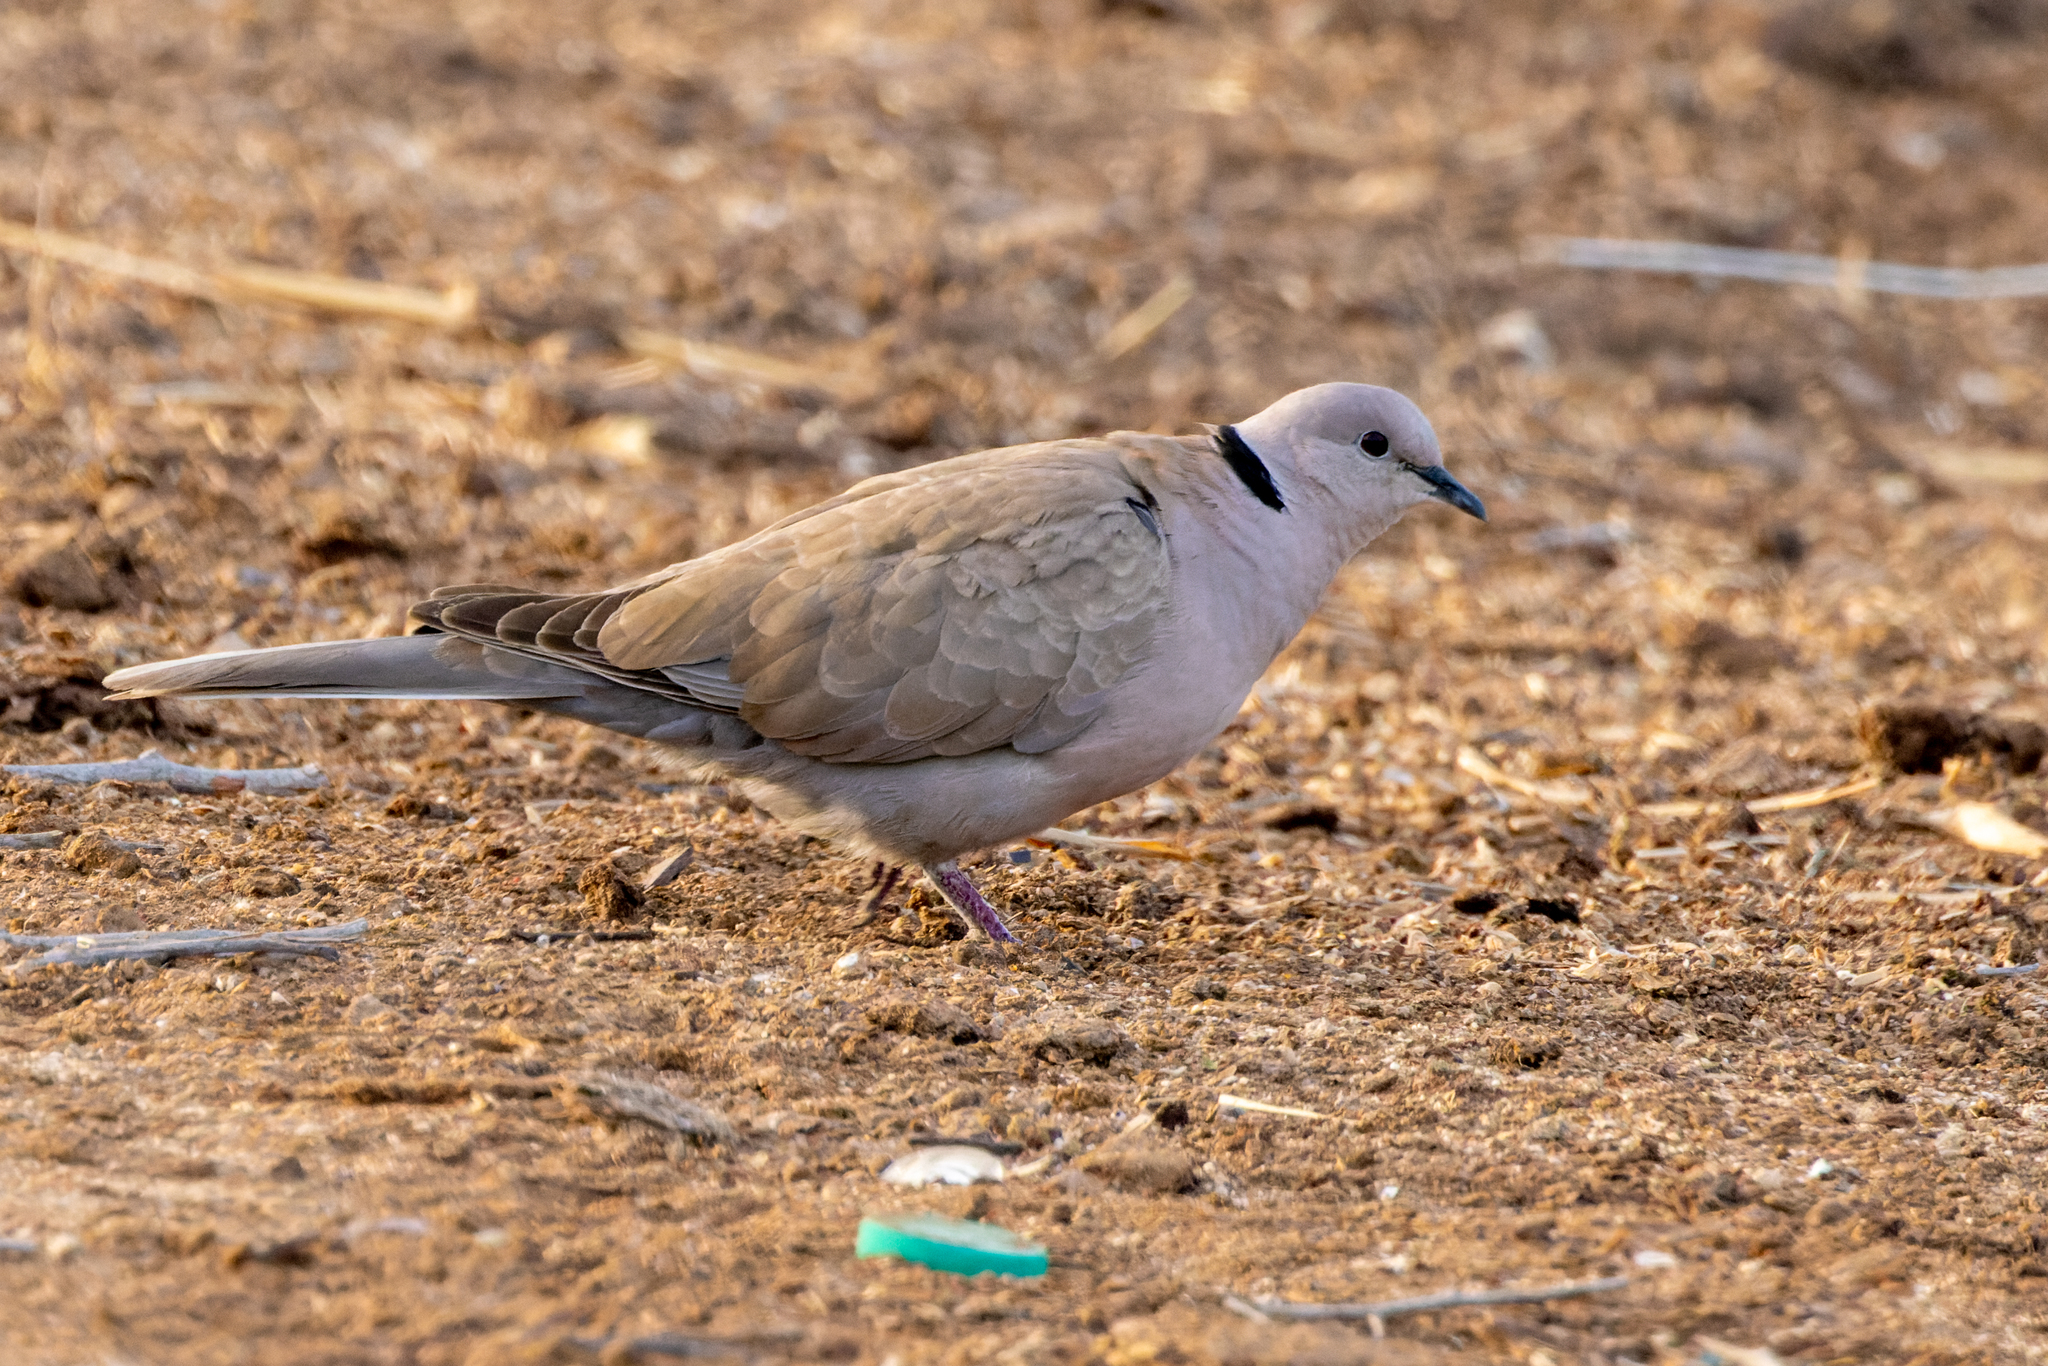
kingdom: Animalia
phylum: Chordata
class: Aves
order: Columbiformes
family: Columbidae
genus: Streptopelia
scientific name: Streptopelia decaocto
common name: Eurasian collared dove
